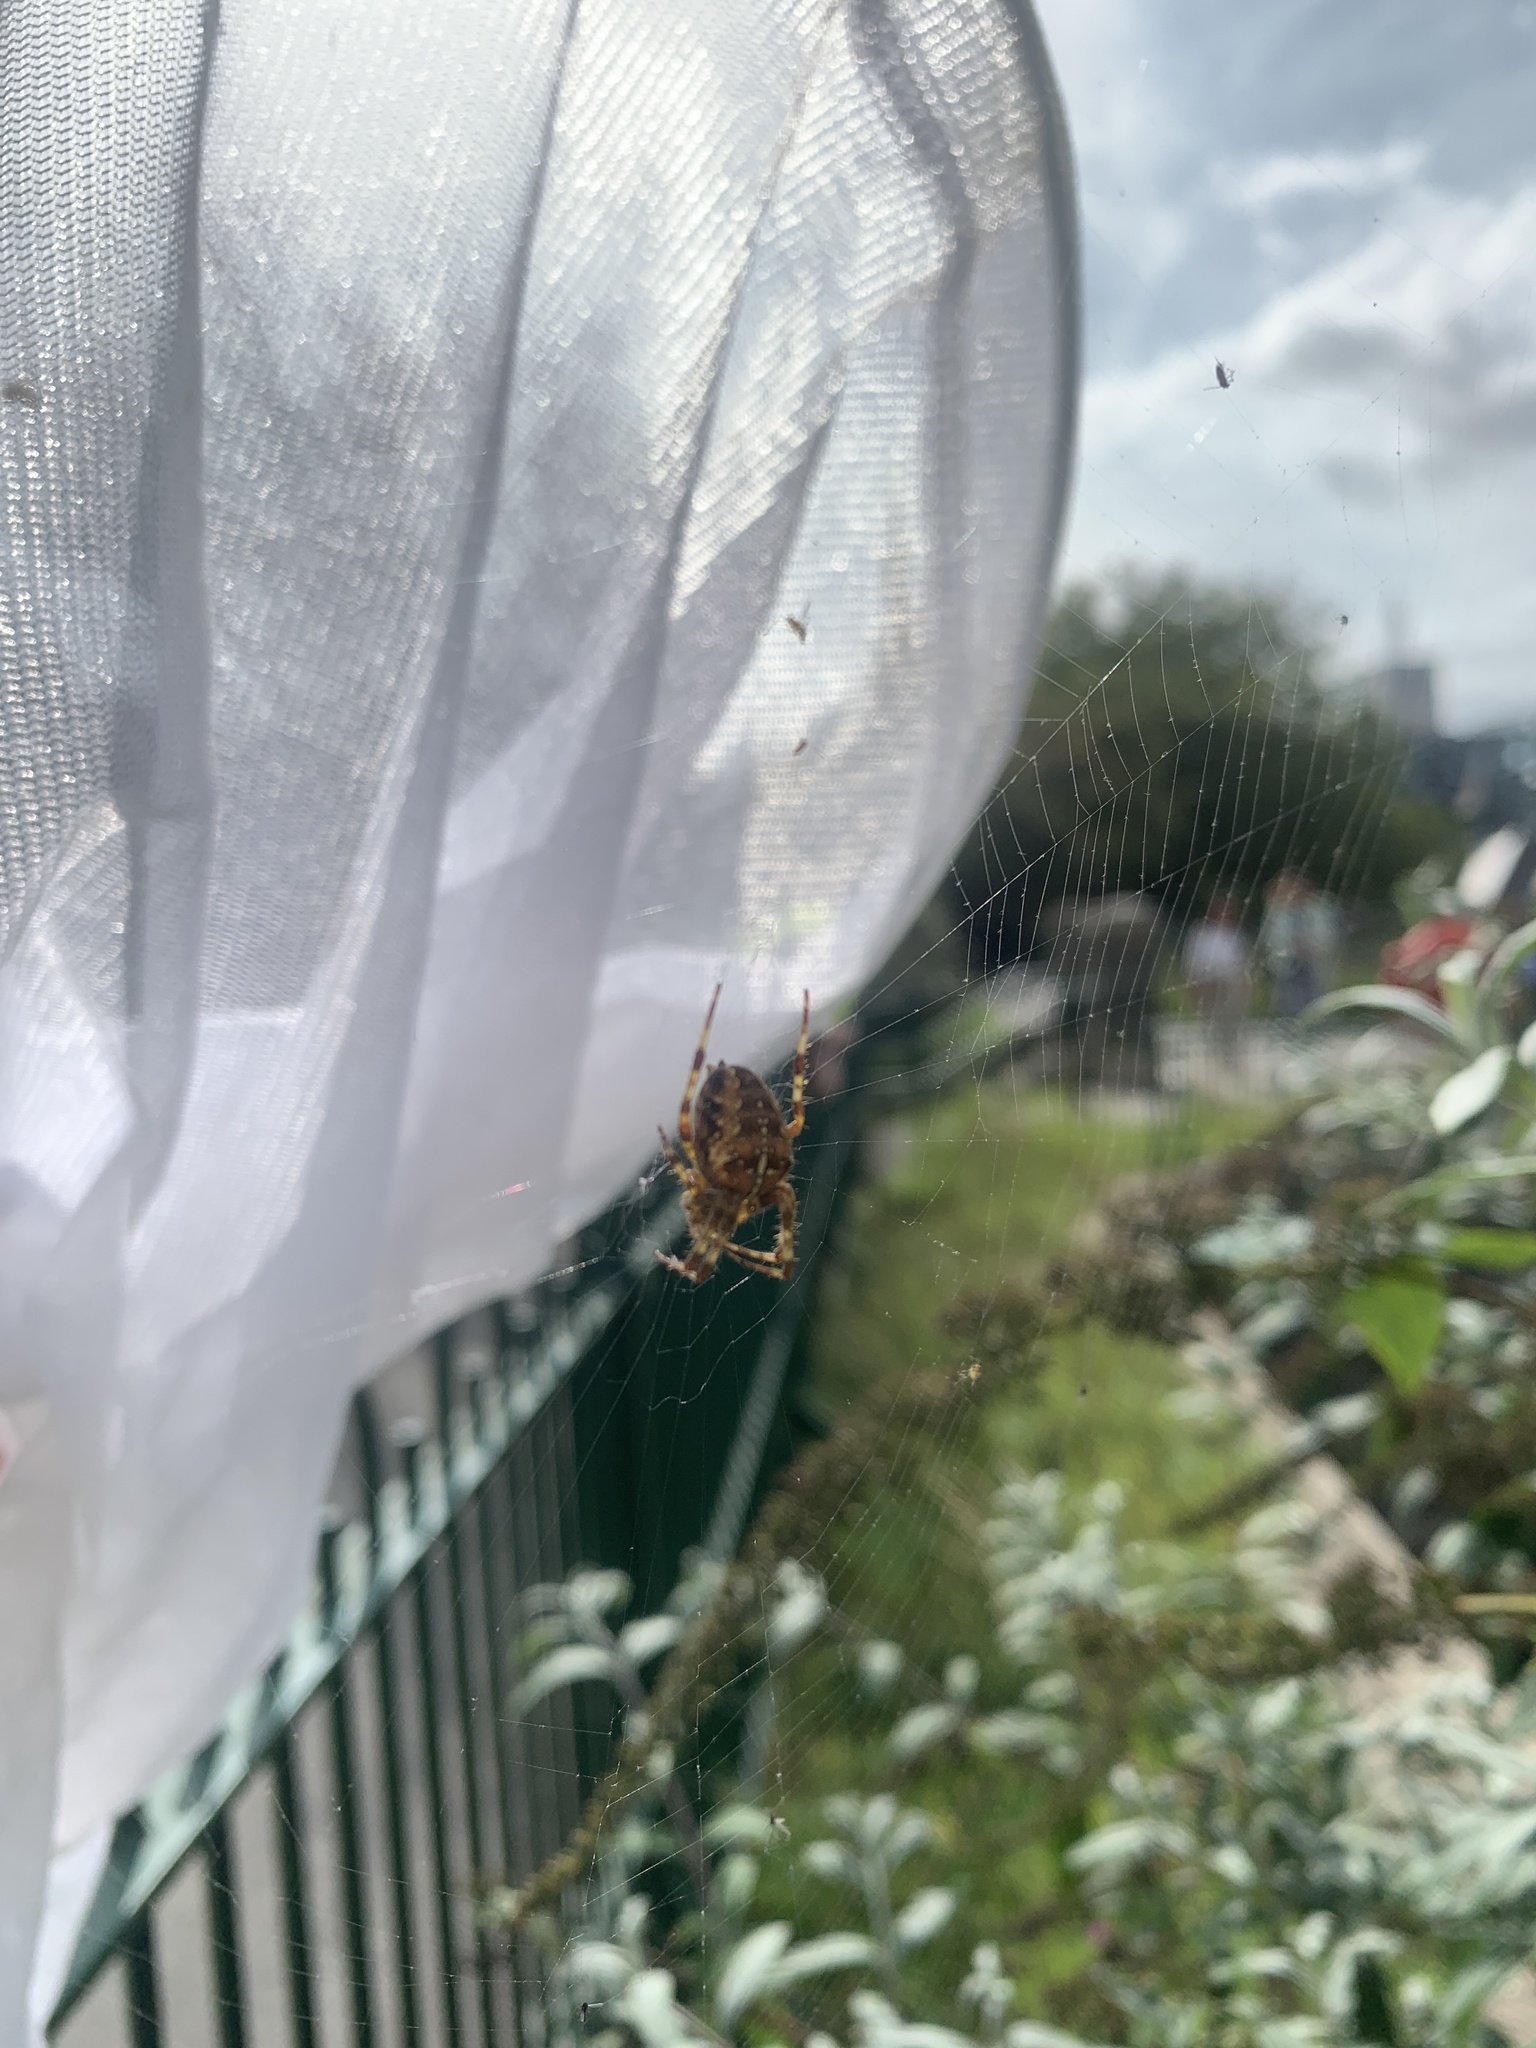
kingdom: Animalia
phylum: Arthropoda
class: Arachnida
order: Araneae
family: Araneidae
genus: Araneus
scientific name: Araneus diadematus
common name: Cross orbweaver
